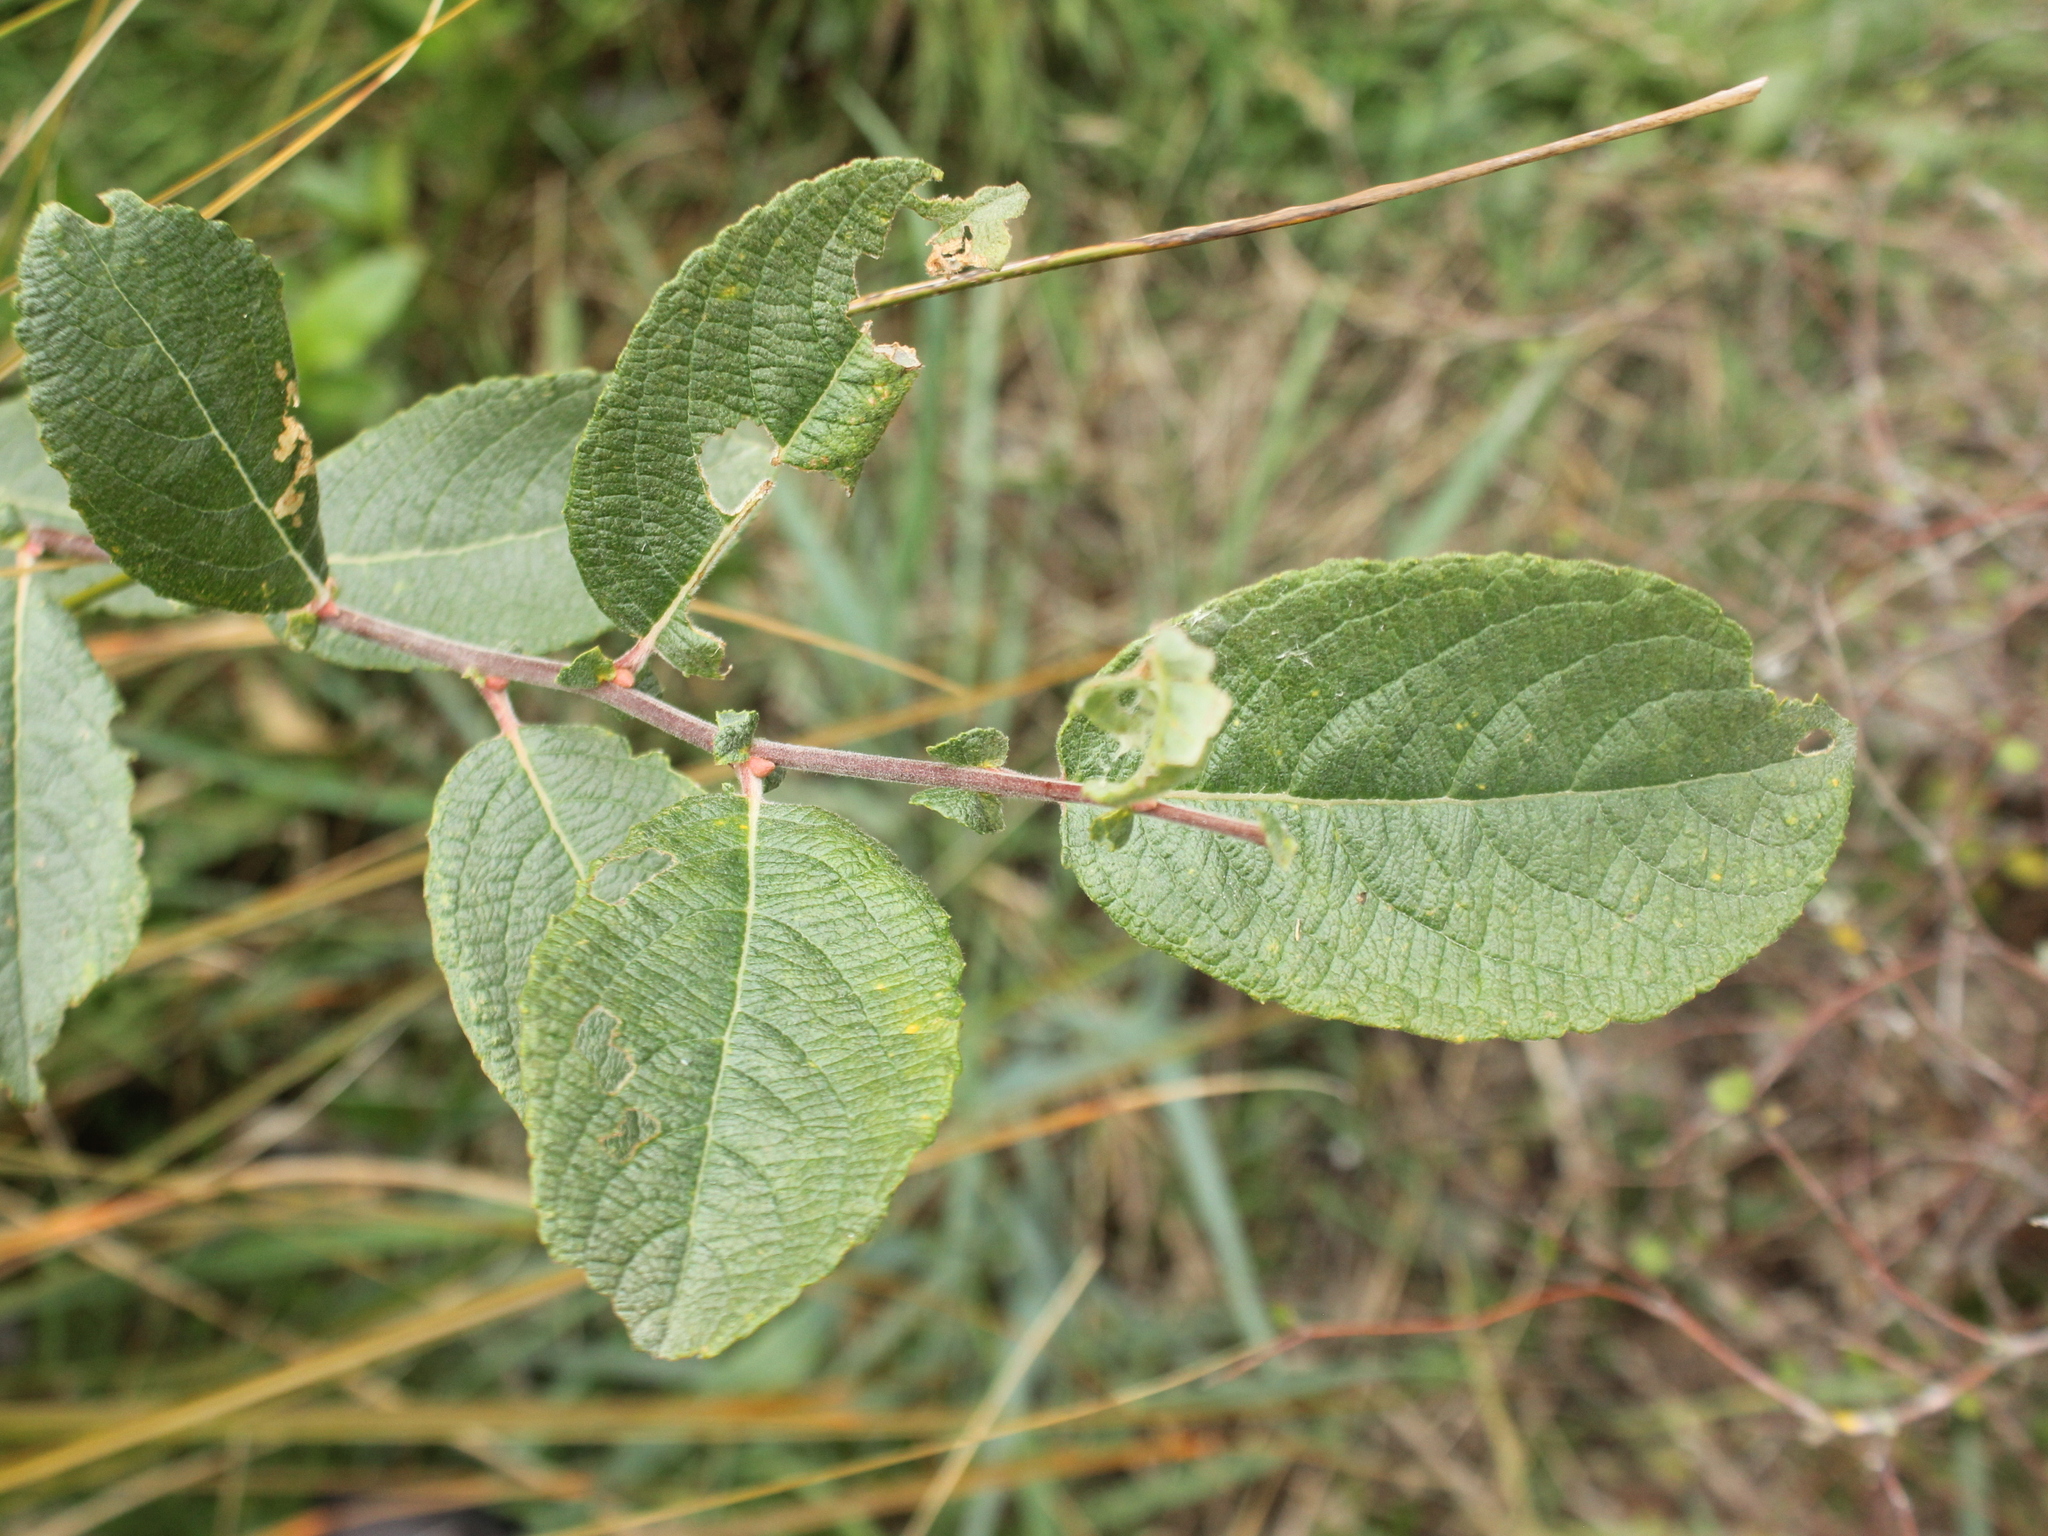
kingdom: Plantae
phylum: Tracheophyta
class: Magnoliopsida
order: Malpighiales
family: Salicaceae
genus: Salix
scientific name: Salix cinerea
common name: Common sallow
